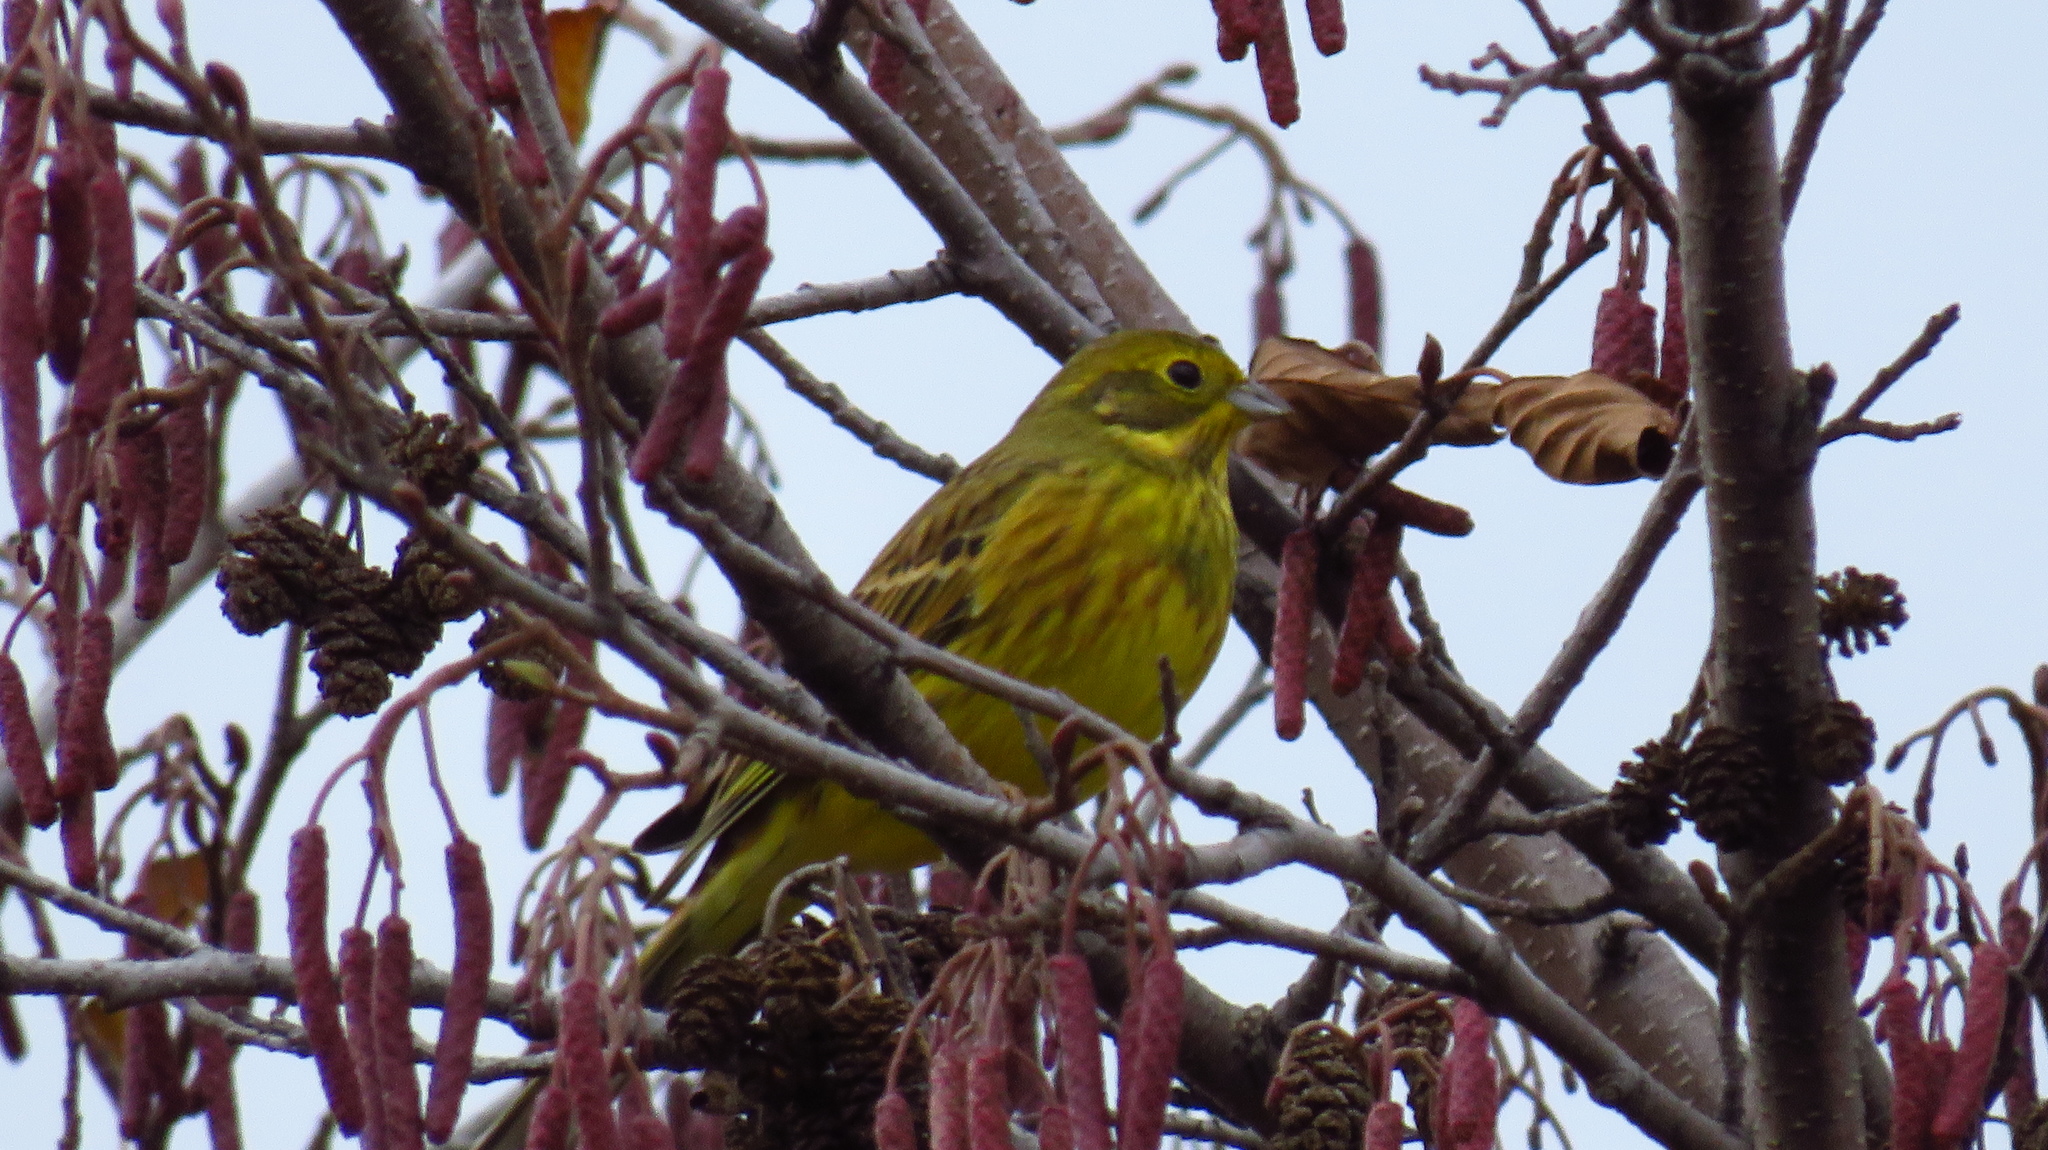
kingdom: Animalia
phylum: Chordata
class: Aves
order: Passeriformes
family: Emberizidae
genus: Emberiza
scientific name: Emberiza citrinella
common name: Yellowhammer
